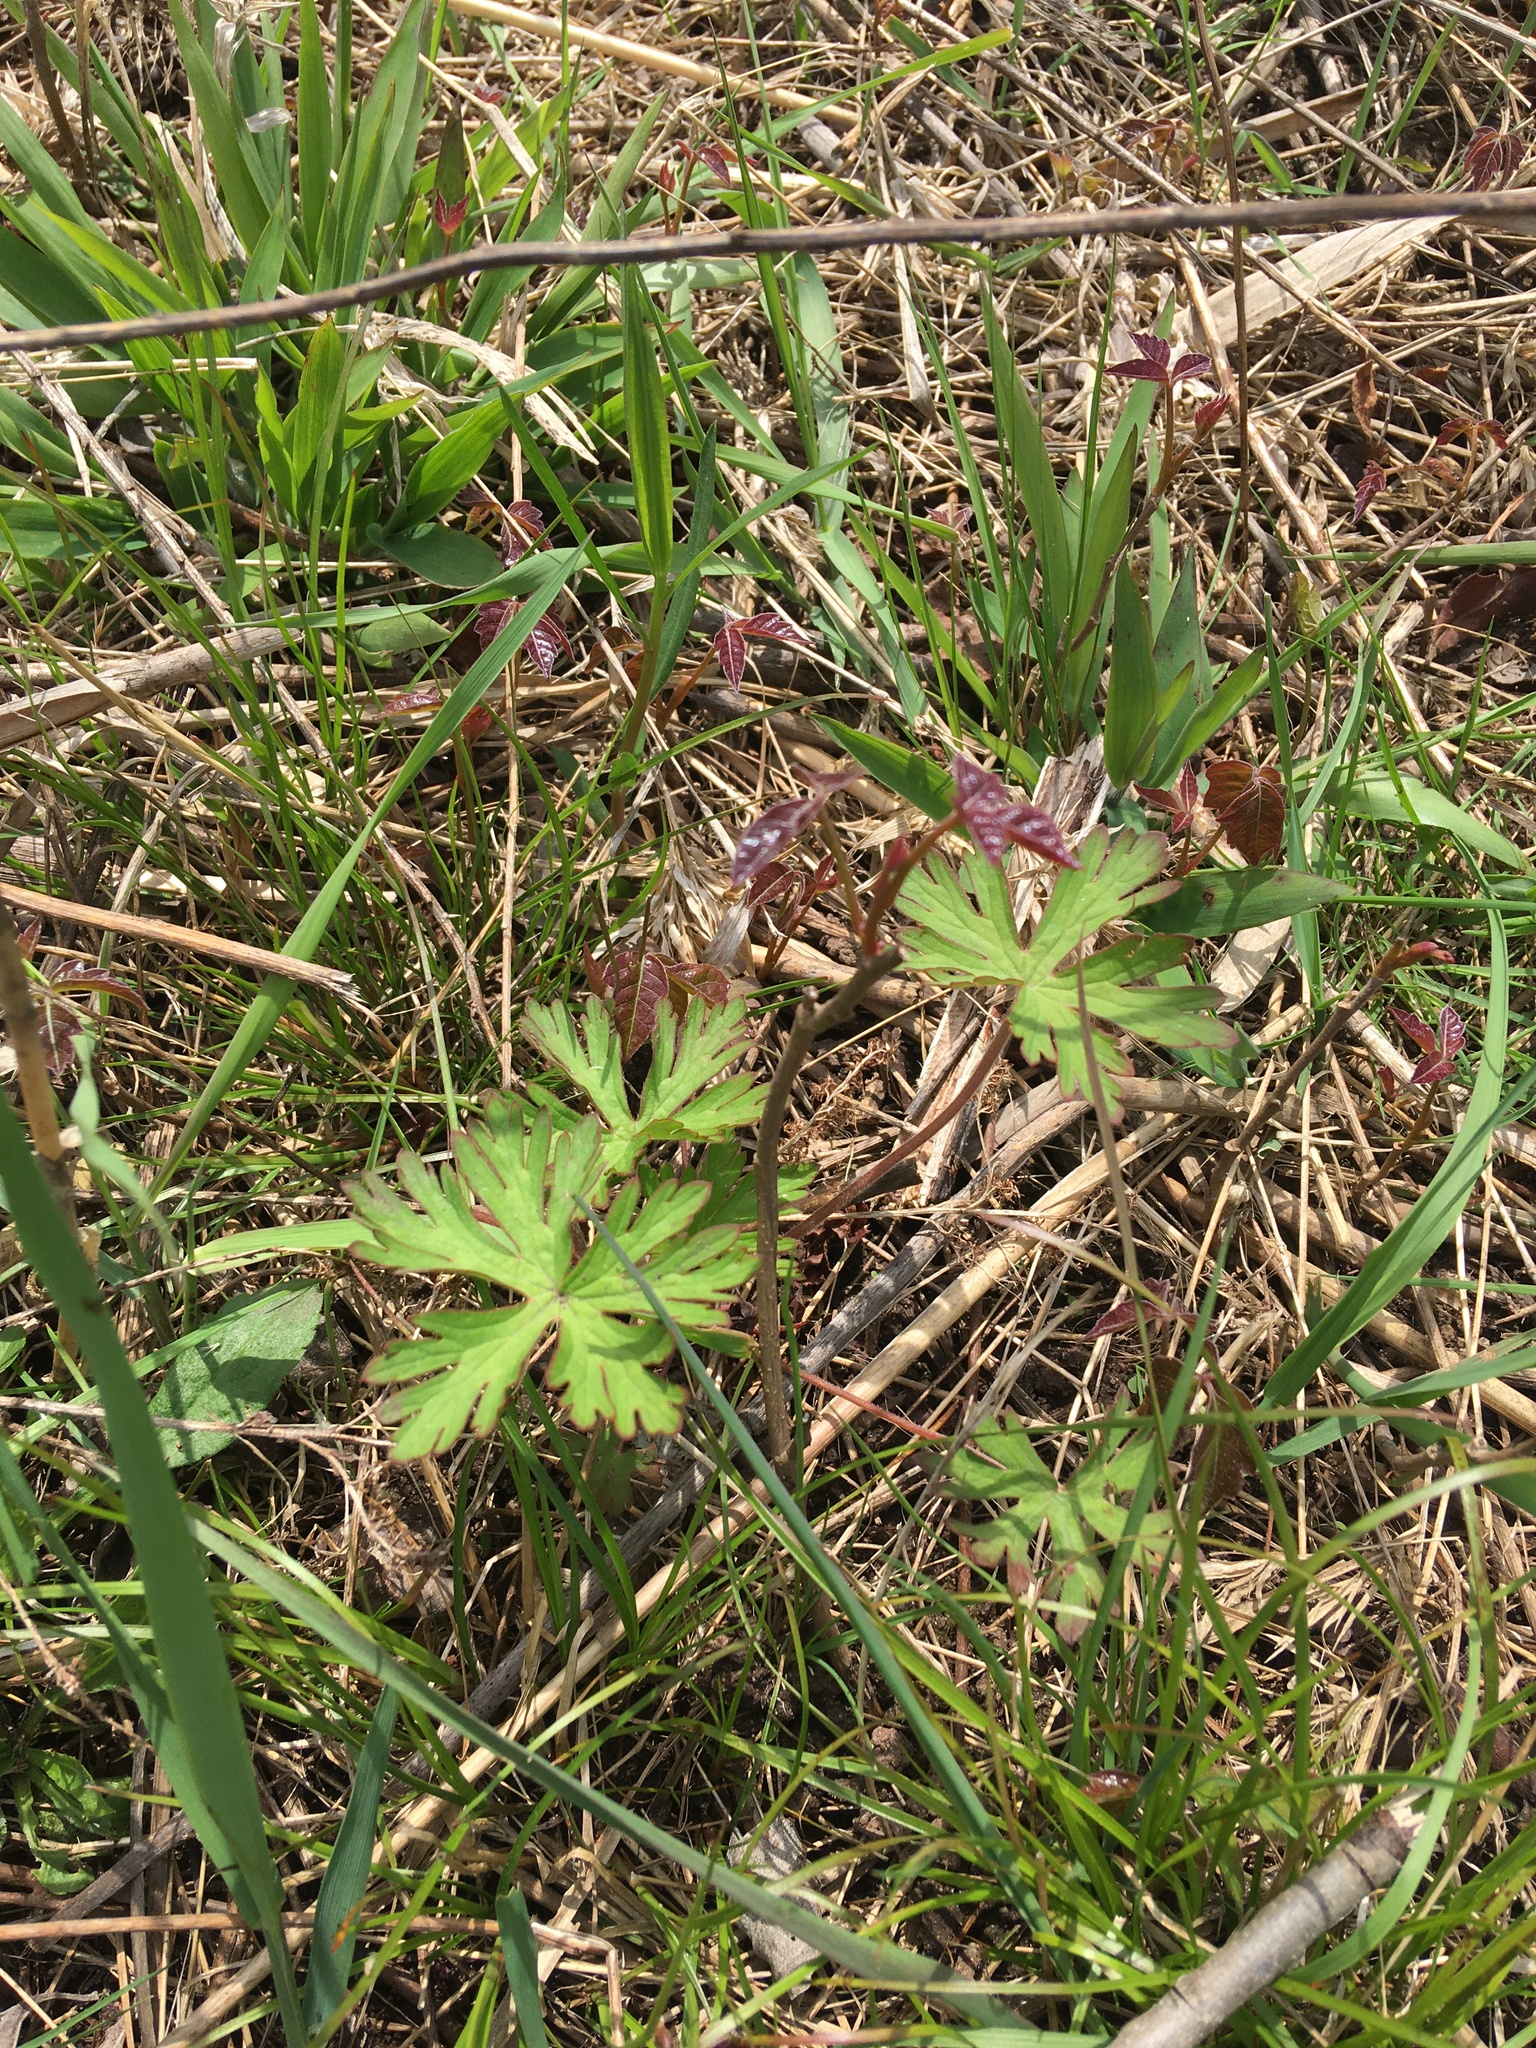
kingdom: Plantae
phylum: Tracheophyta
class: Magnoliopsida
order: Geraniales
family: Geraniaceae
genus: Geranium
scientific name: Geranium carolinianum
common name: Carolina crane's-bill
